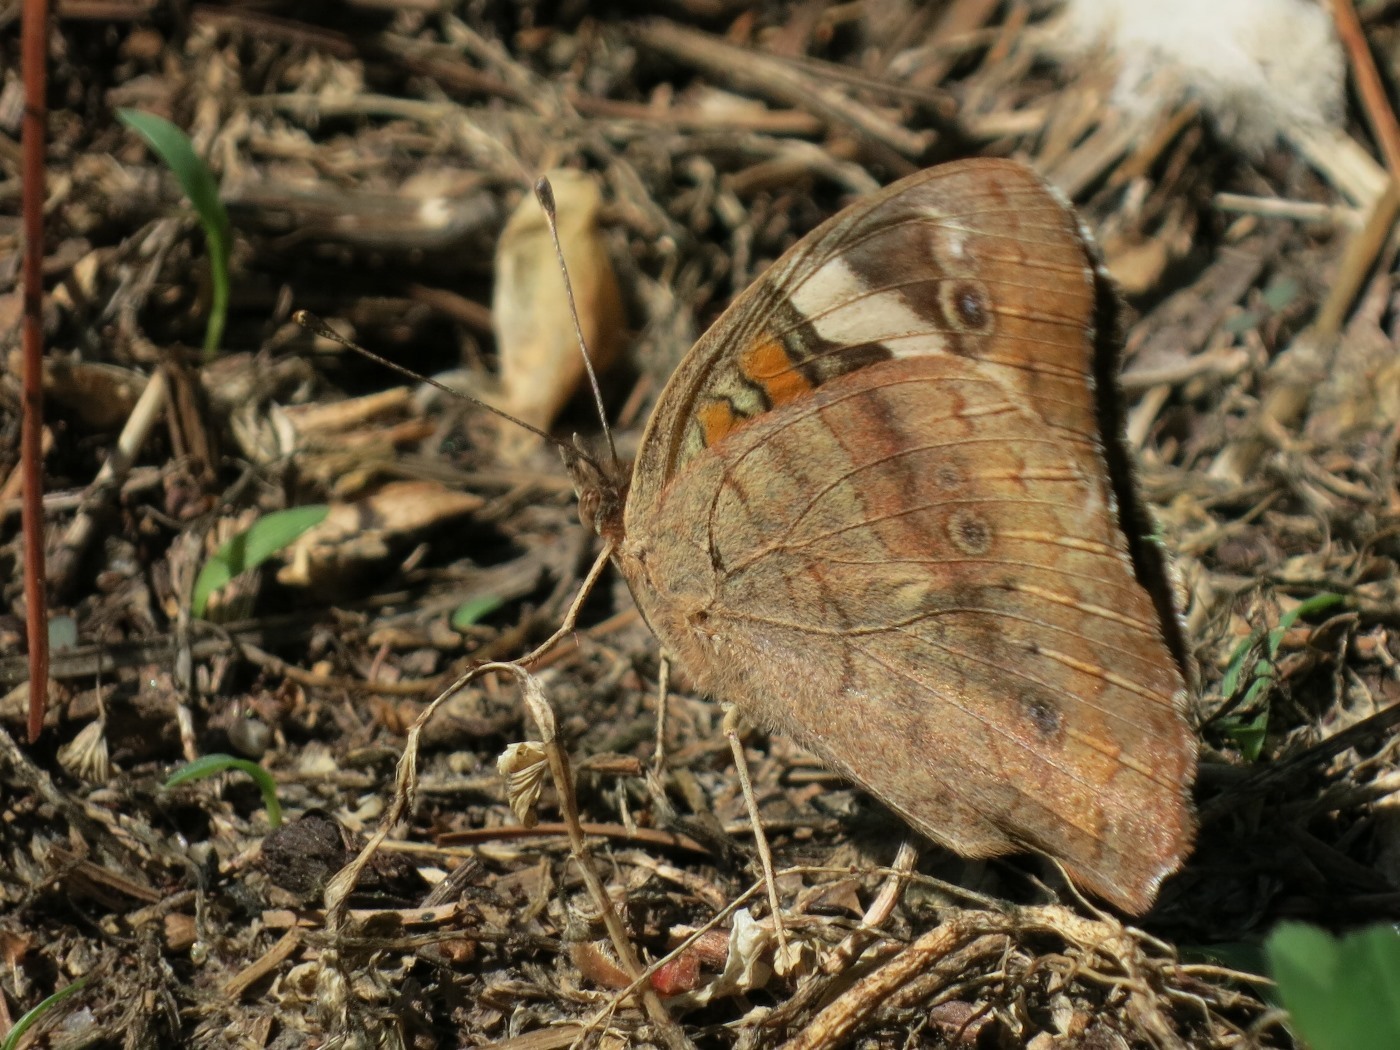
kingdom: Animalia
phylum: Arthropoda
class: Insecta
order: Lepidoptera
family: Nymphalidae
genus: Junonia
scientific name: Junonia coenia
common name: Common buckeye
